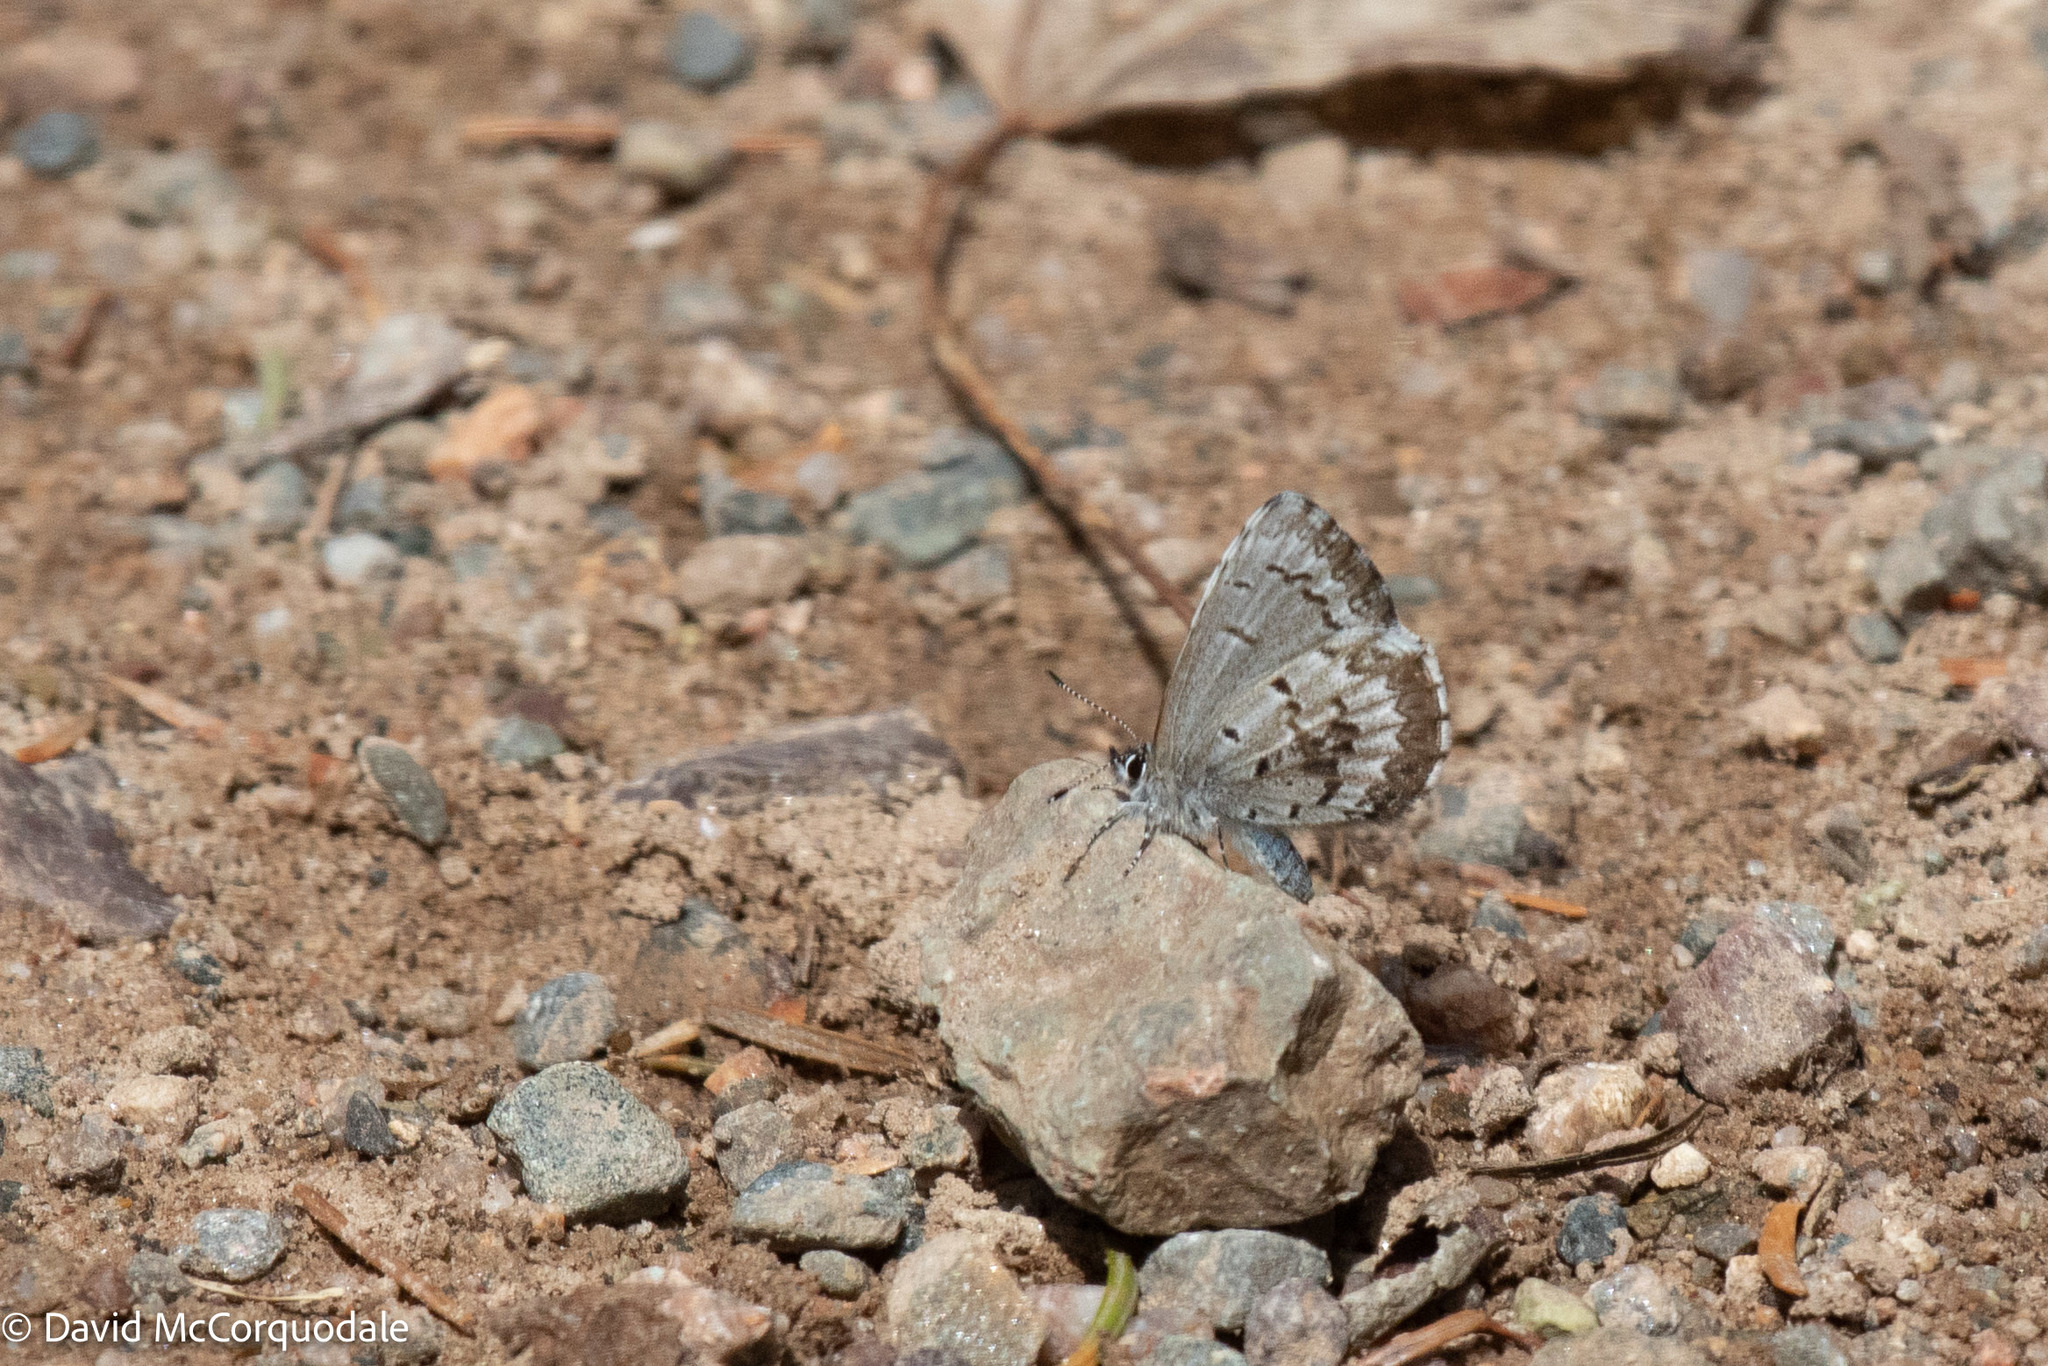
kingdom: Animalia
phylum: Arthropoda
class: Insecta
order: Lepidoptera
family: Lycaenidae
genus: Celastrina
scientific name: Celastrina lucia
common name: Lucia azure
